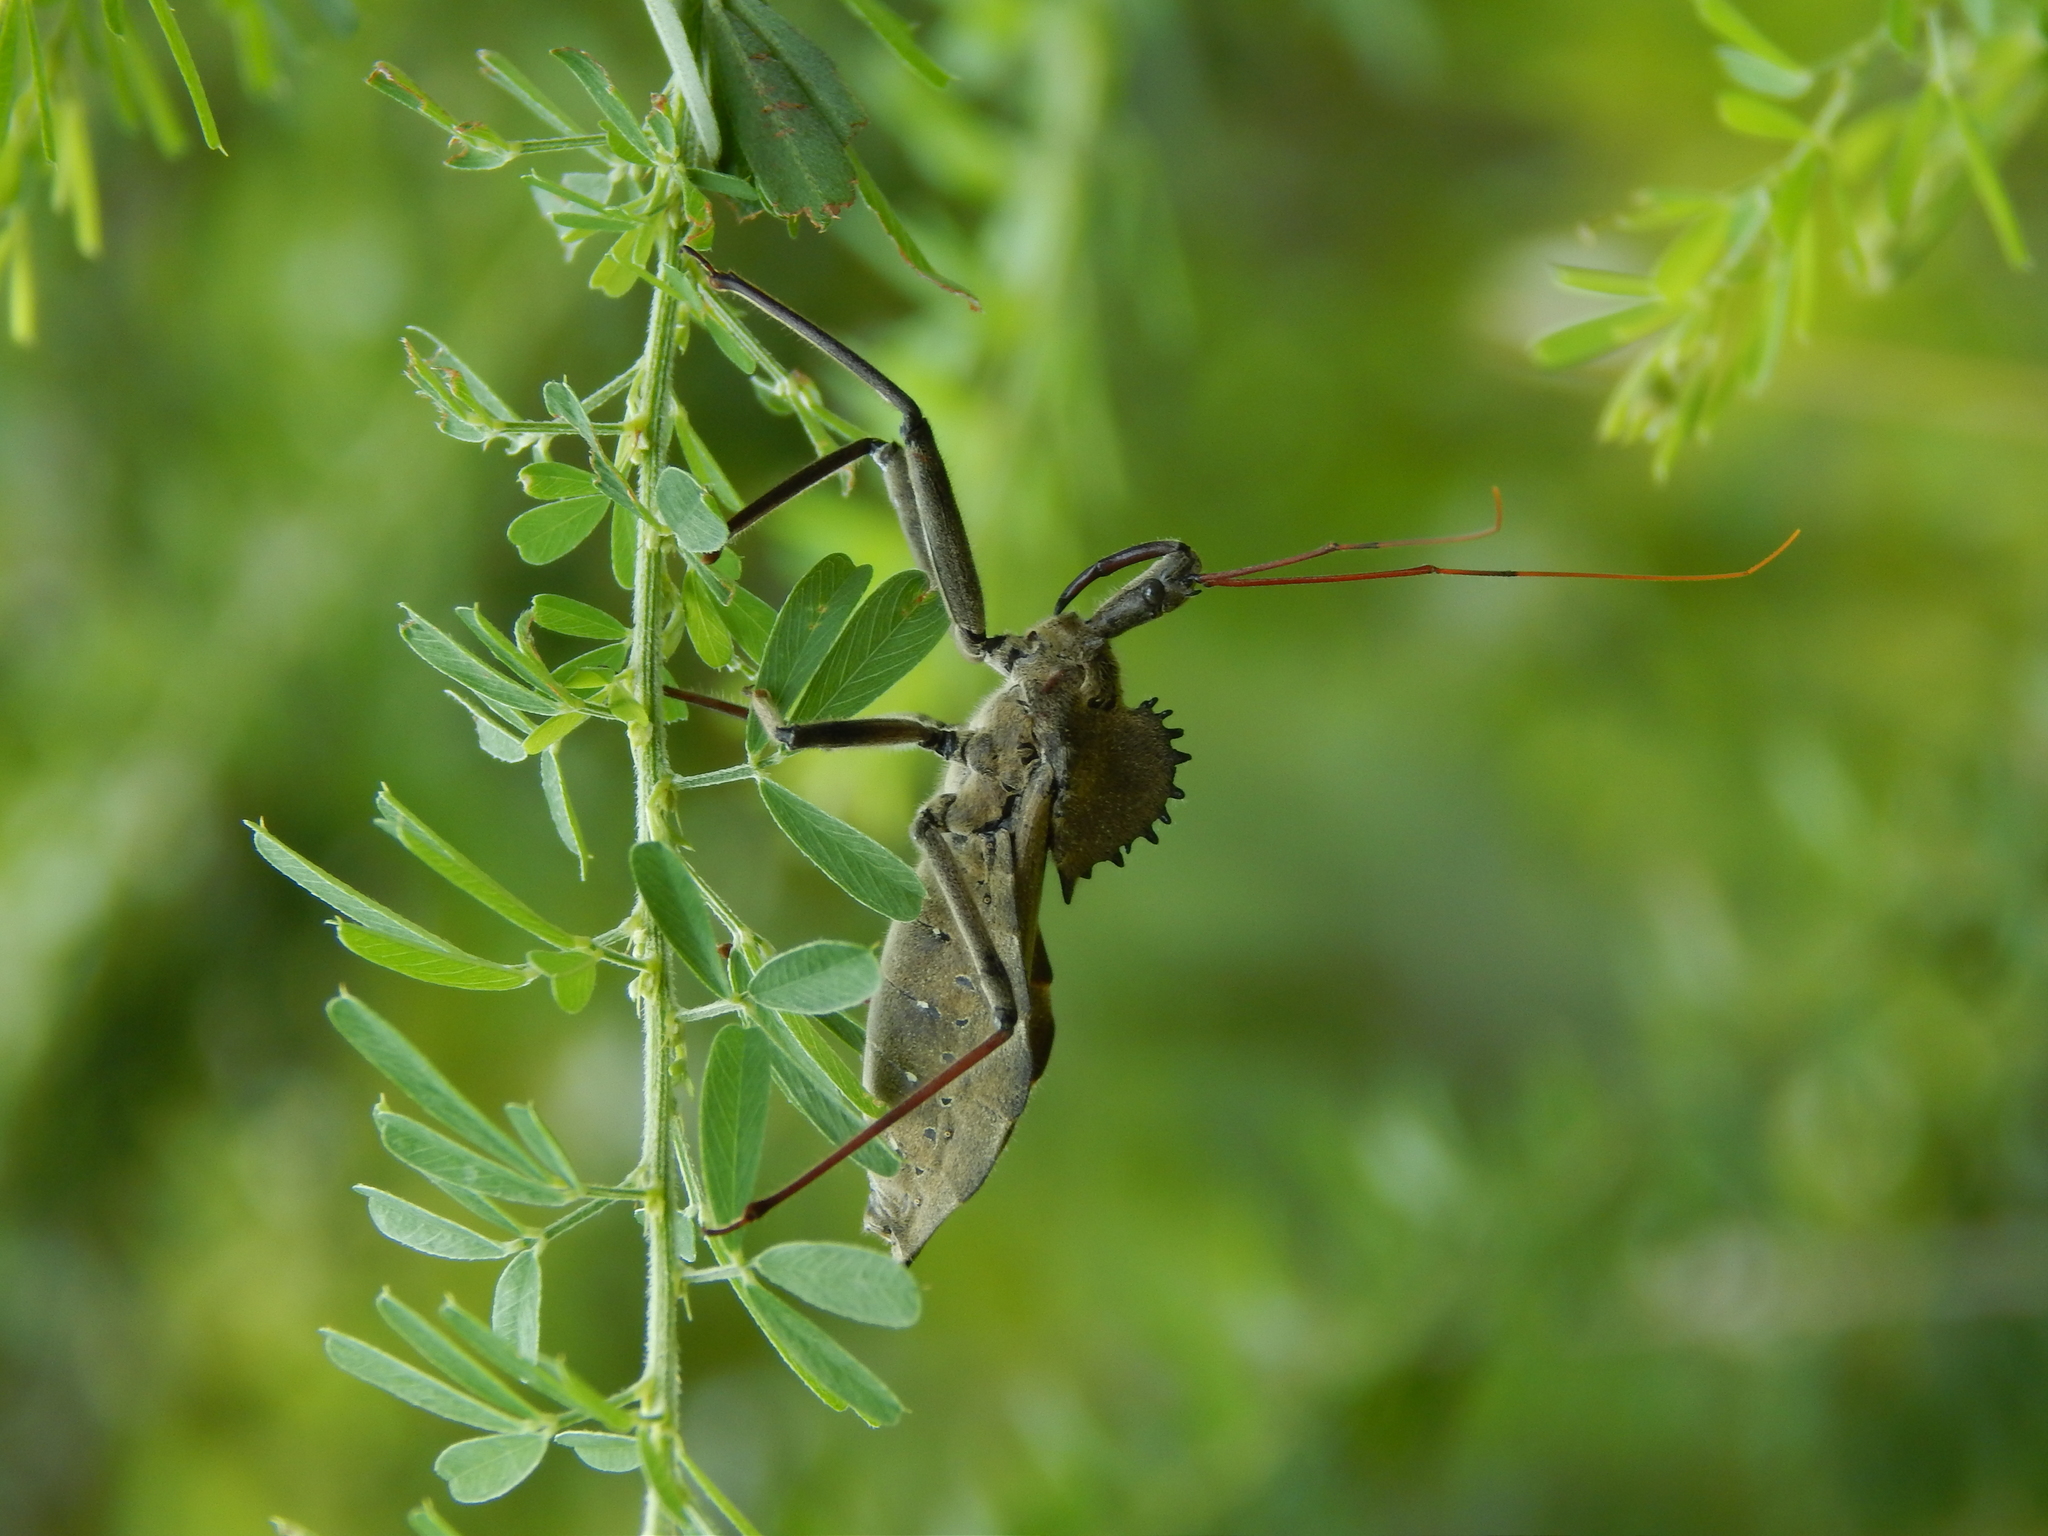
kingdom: Animalia
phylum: Arthropoda
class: Insecta
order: Hemiptera
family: Reduviidae
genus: Arilus
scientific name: Arilus cristatus
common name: North american wheel bug
